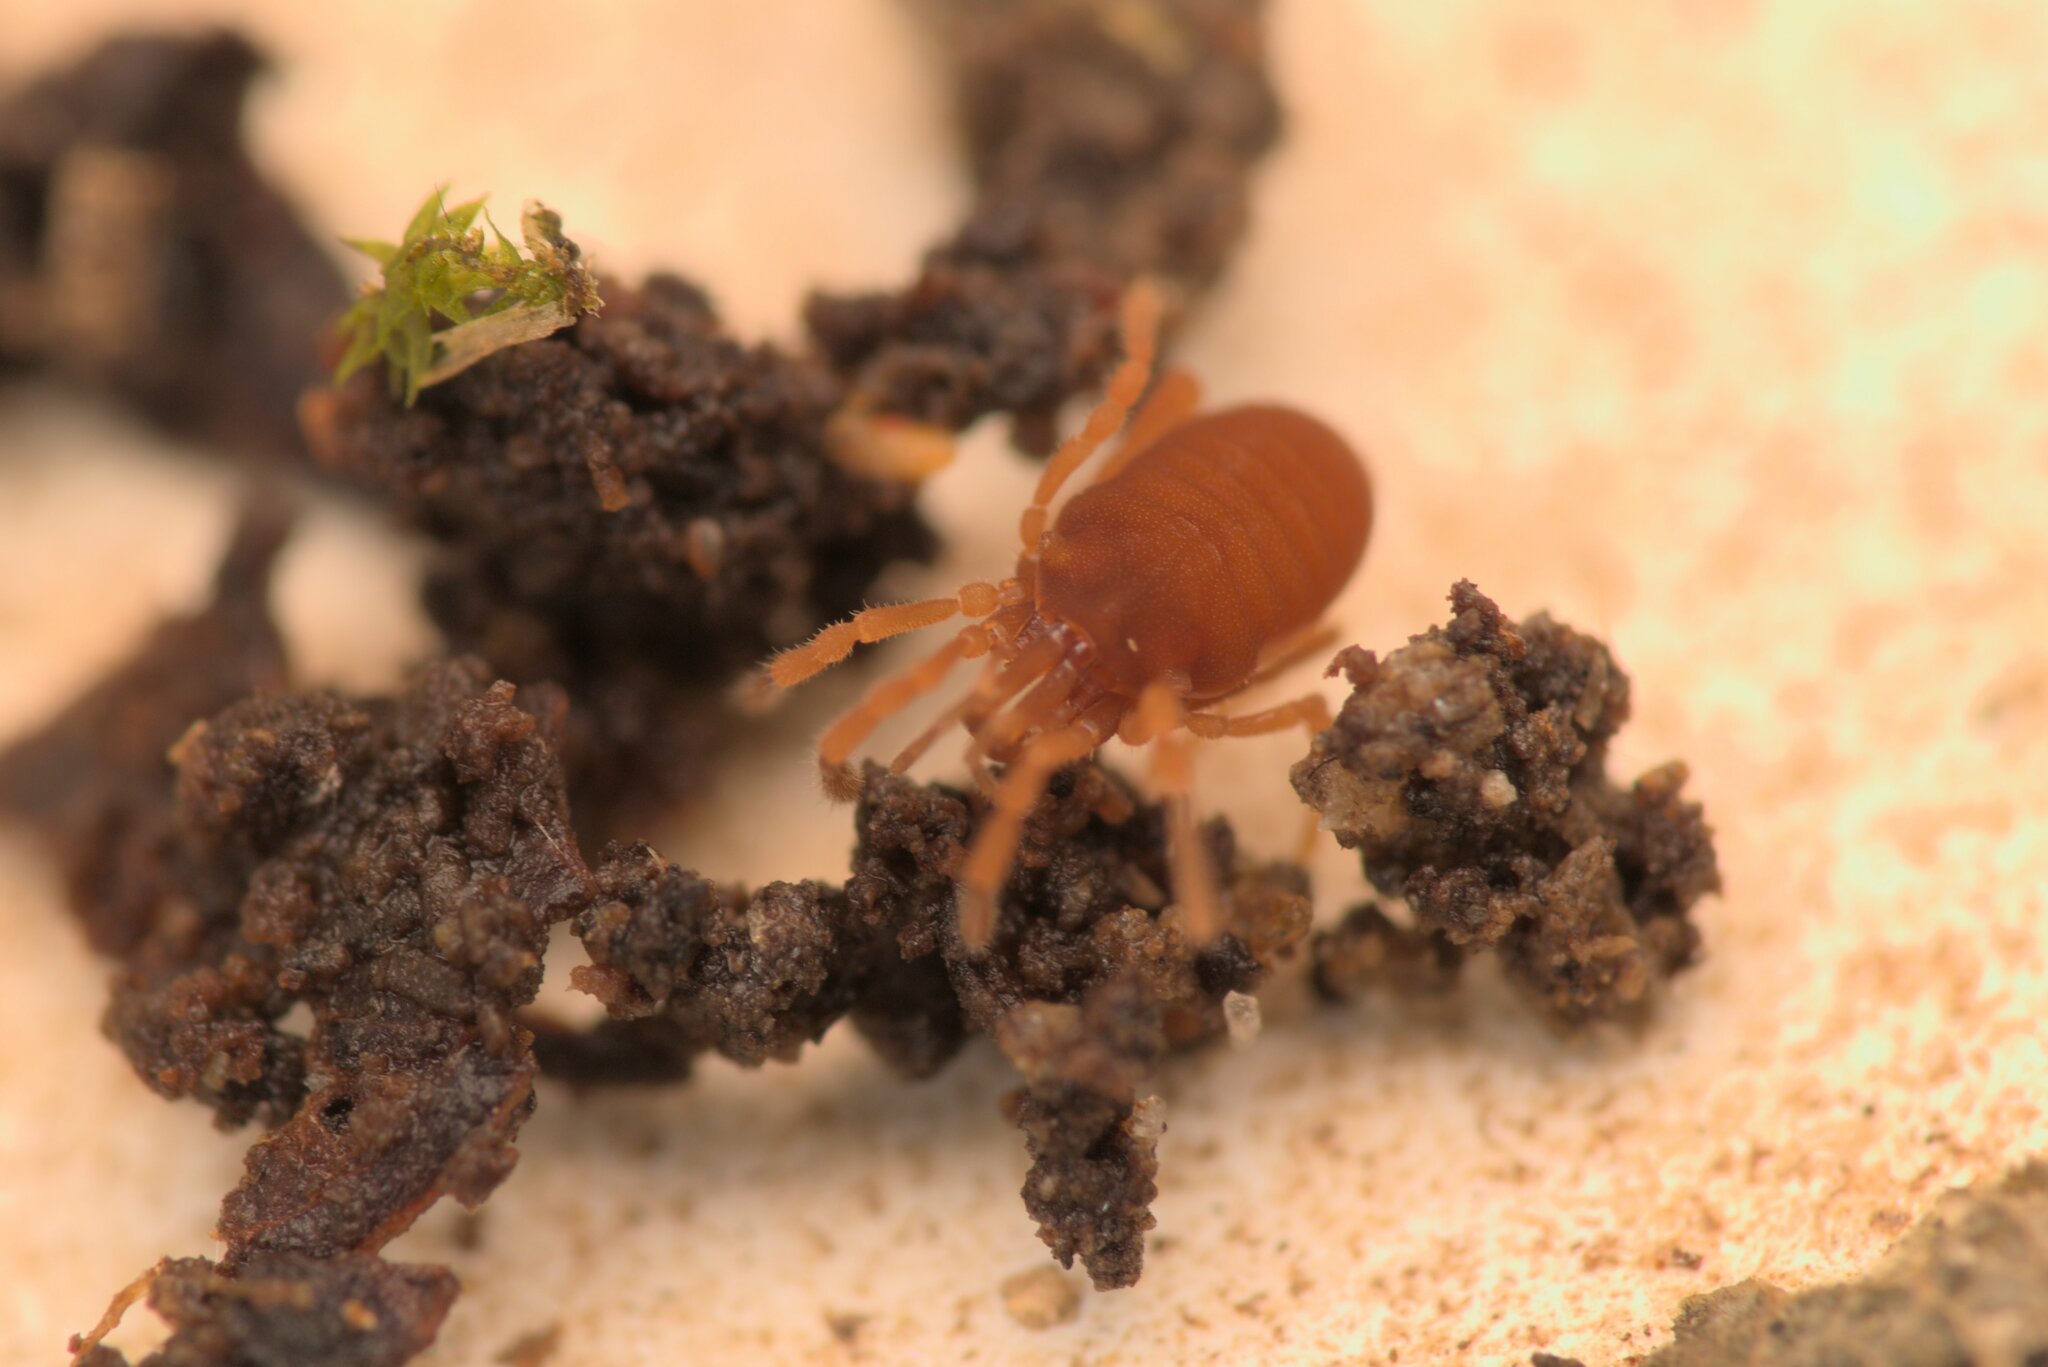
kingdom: Animalia
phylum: Arthropoda
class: Arachnida
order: Opiliones
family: Sironidae
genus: Siro
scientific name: Siro rubens
